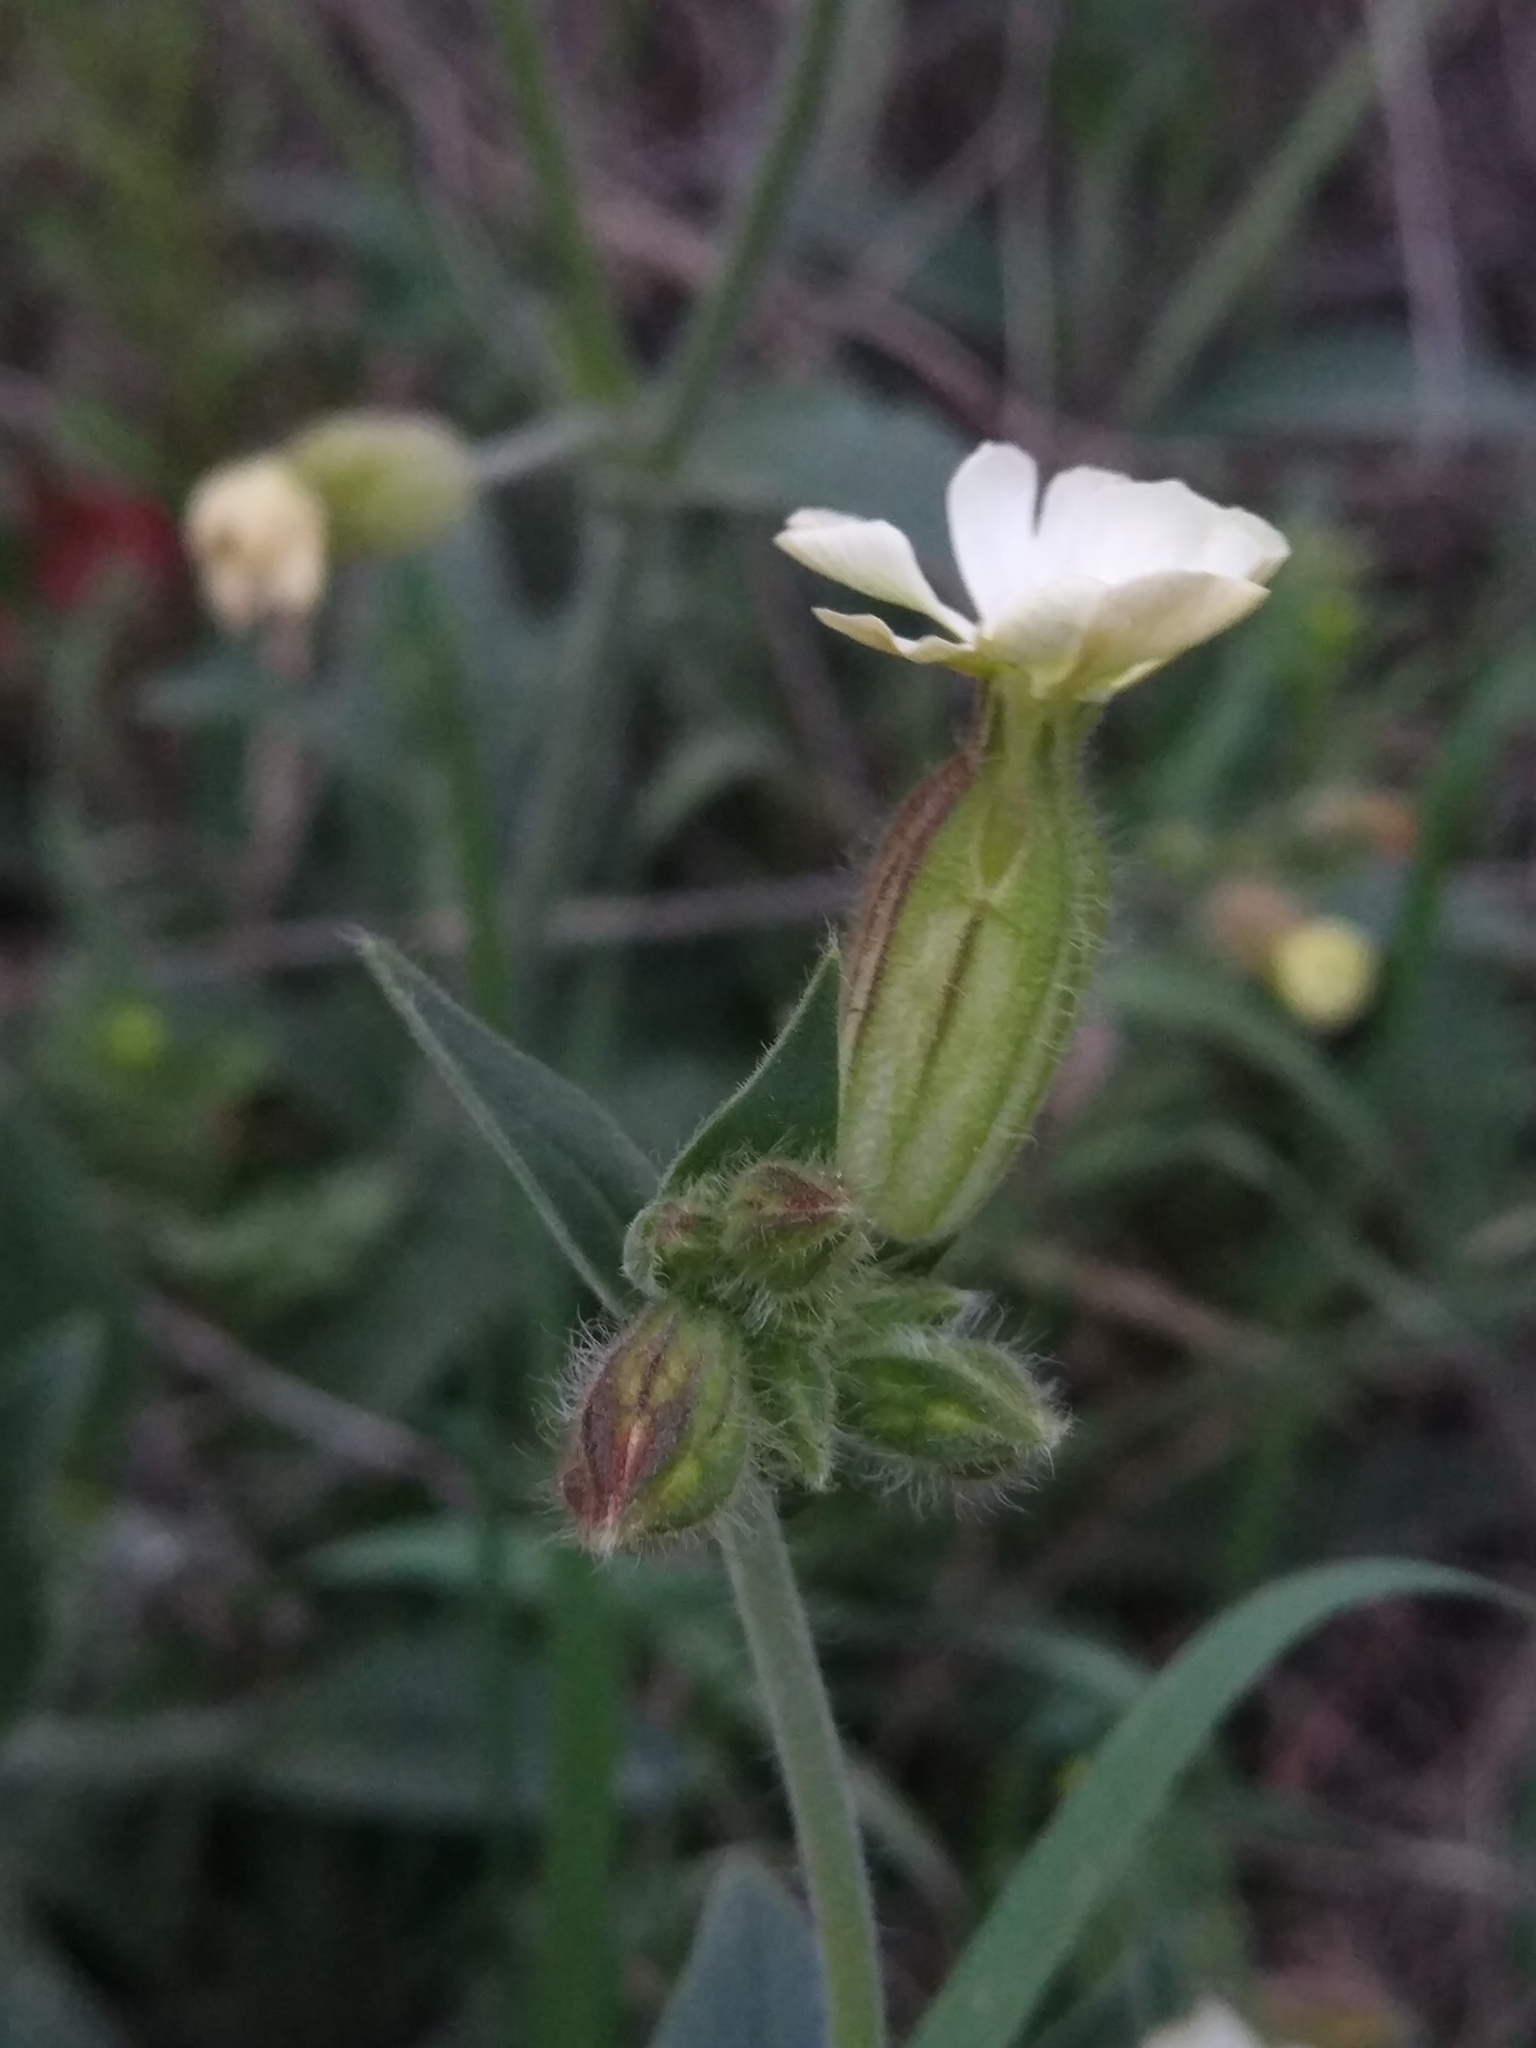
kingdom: Plantae
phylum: Tracheophyta
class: Magnoliopsida
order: Caryophyllales
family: Caryophyllaceae
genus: Silene
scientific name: Silene latifolia
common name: White campion
